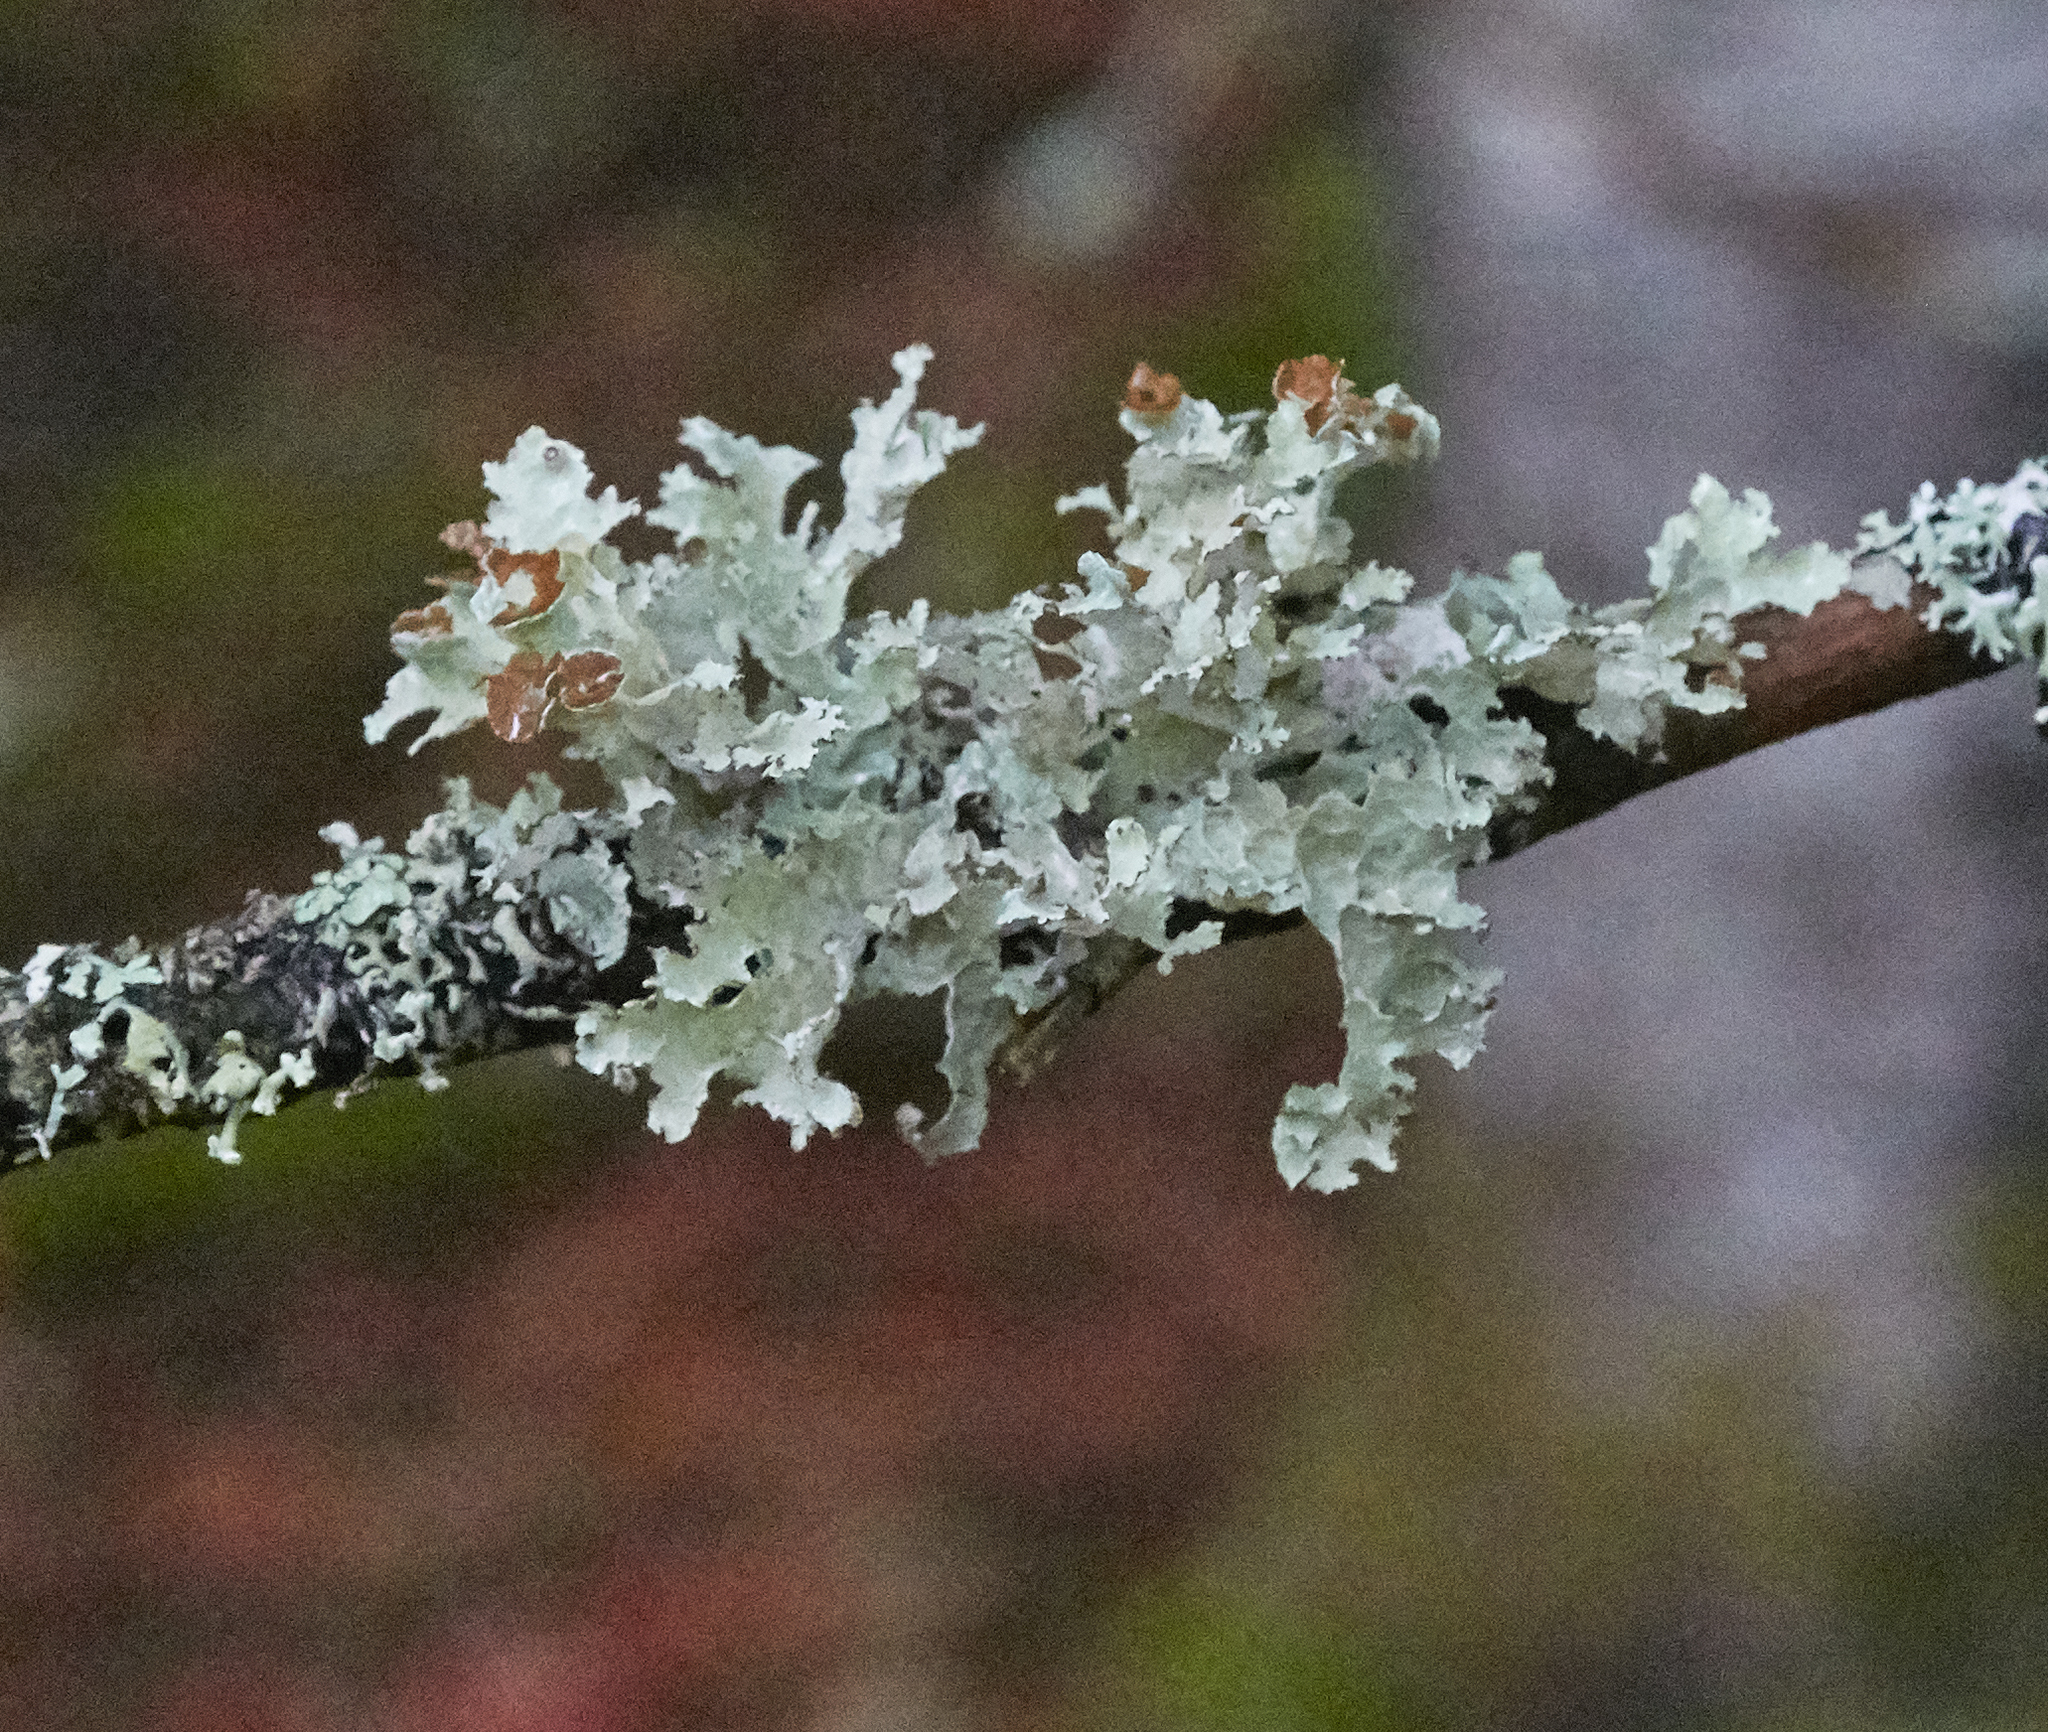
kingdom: Fungi
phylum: Ascomycota
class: Lecanoromycetes
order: Lecanorales
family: Parmeliaceae
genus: Platismatia
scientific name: Platismatia tuckermanii
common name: Crumpled rag lichen
